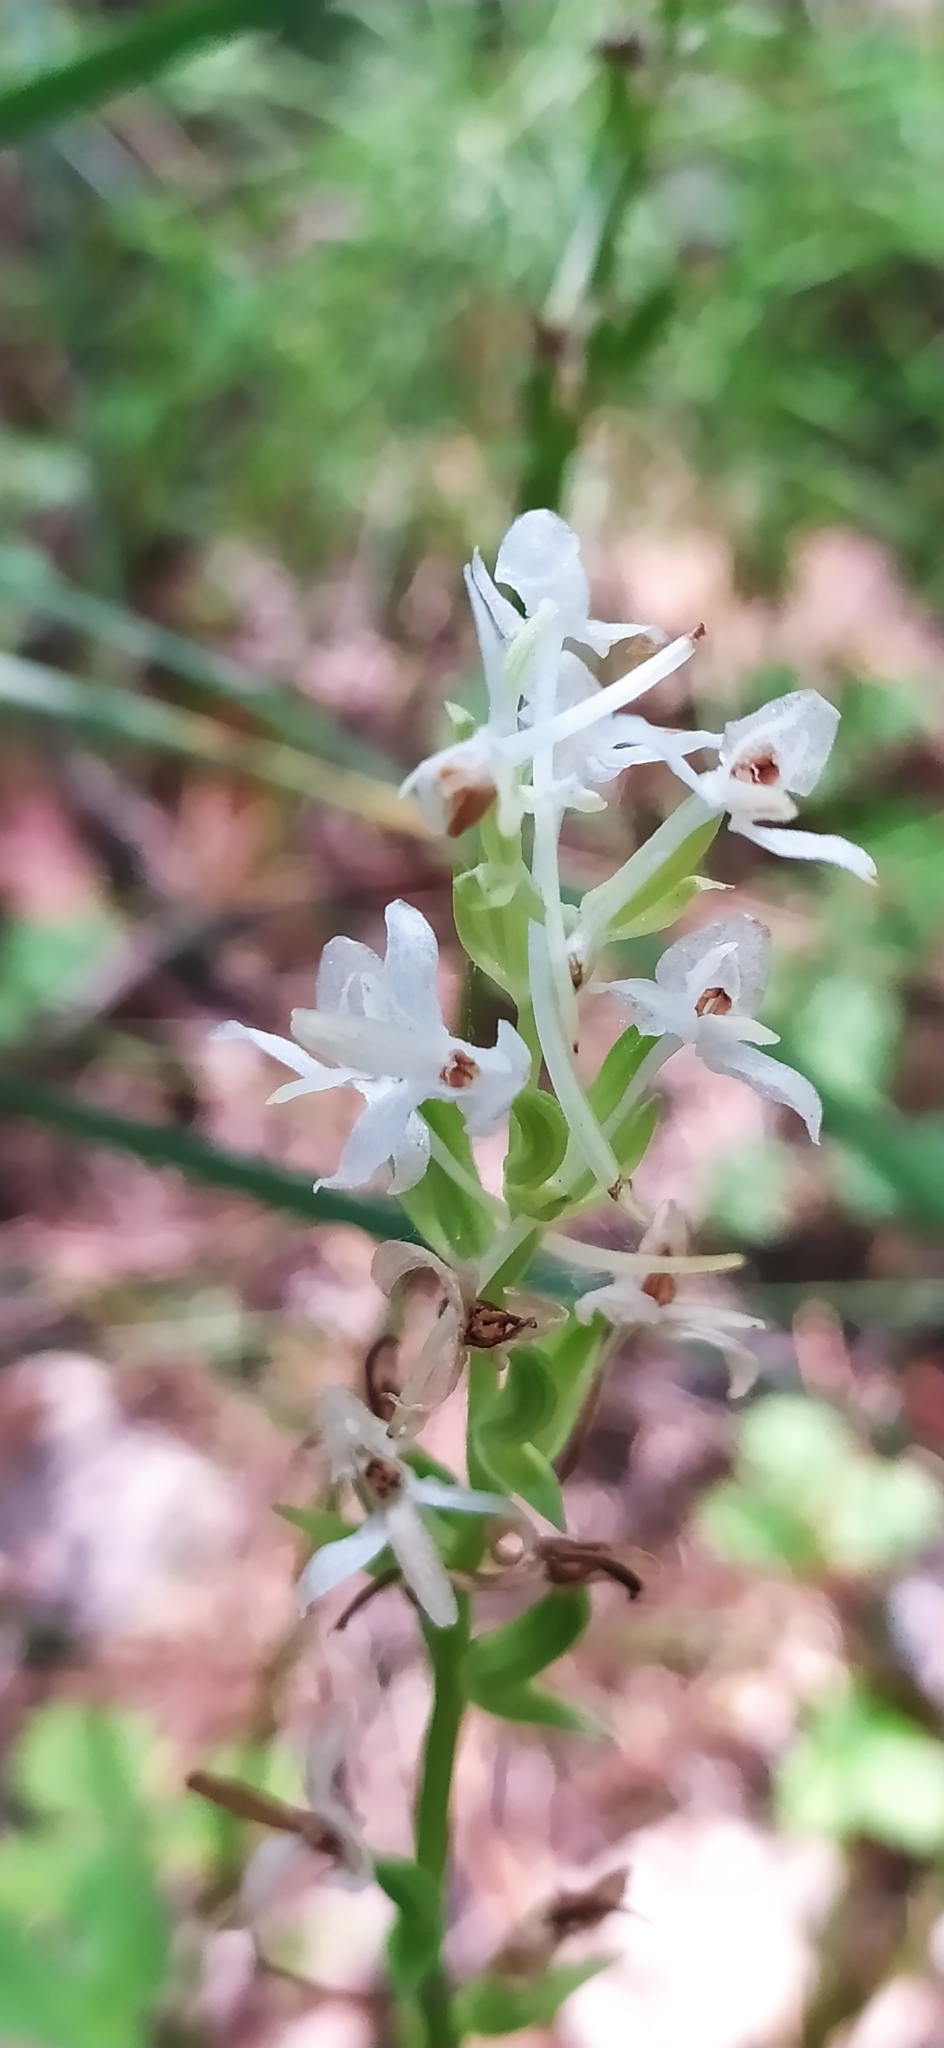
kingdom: Plantae
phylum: Tracheophyta
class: Liliopsida
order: Asparagales
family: Orchidaceae
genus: Platanthera
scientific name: Platanthera bifolia
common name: Lesser butterfly-orchid
